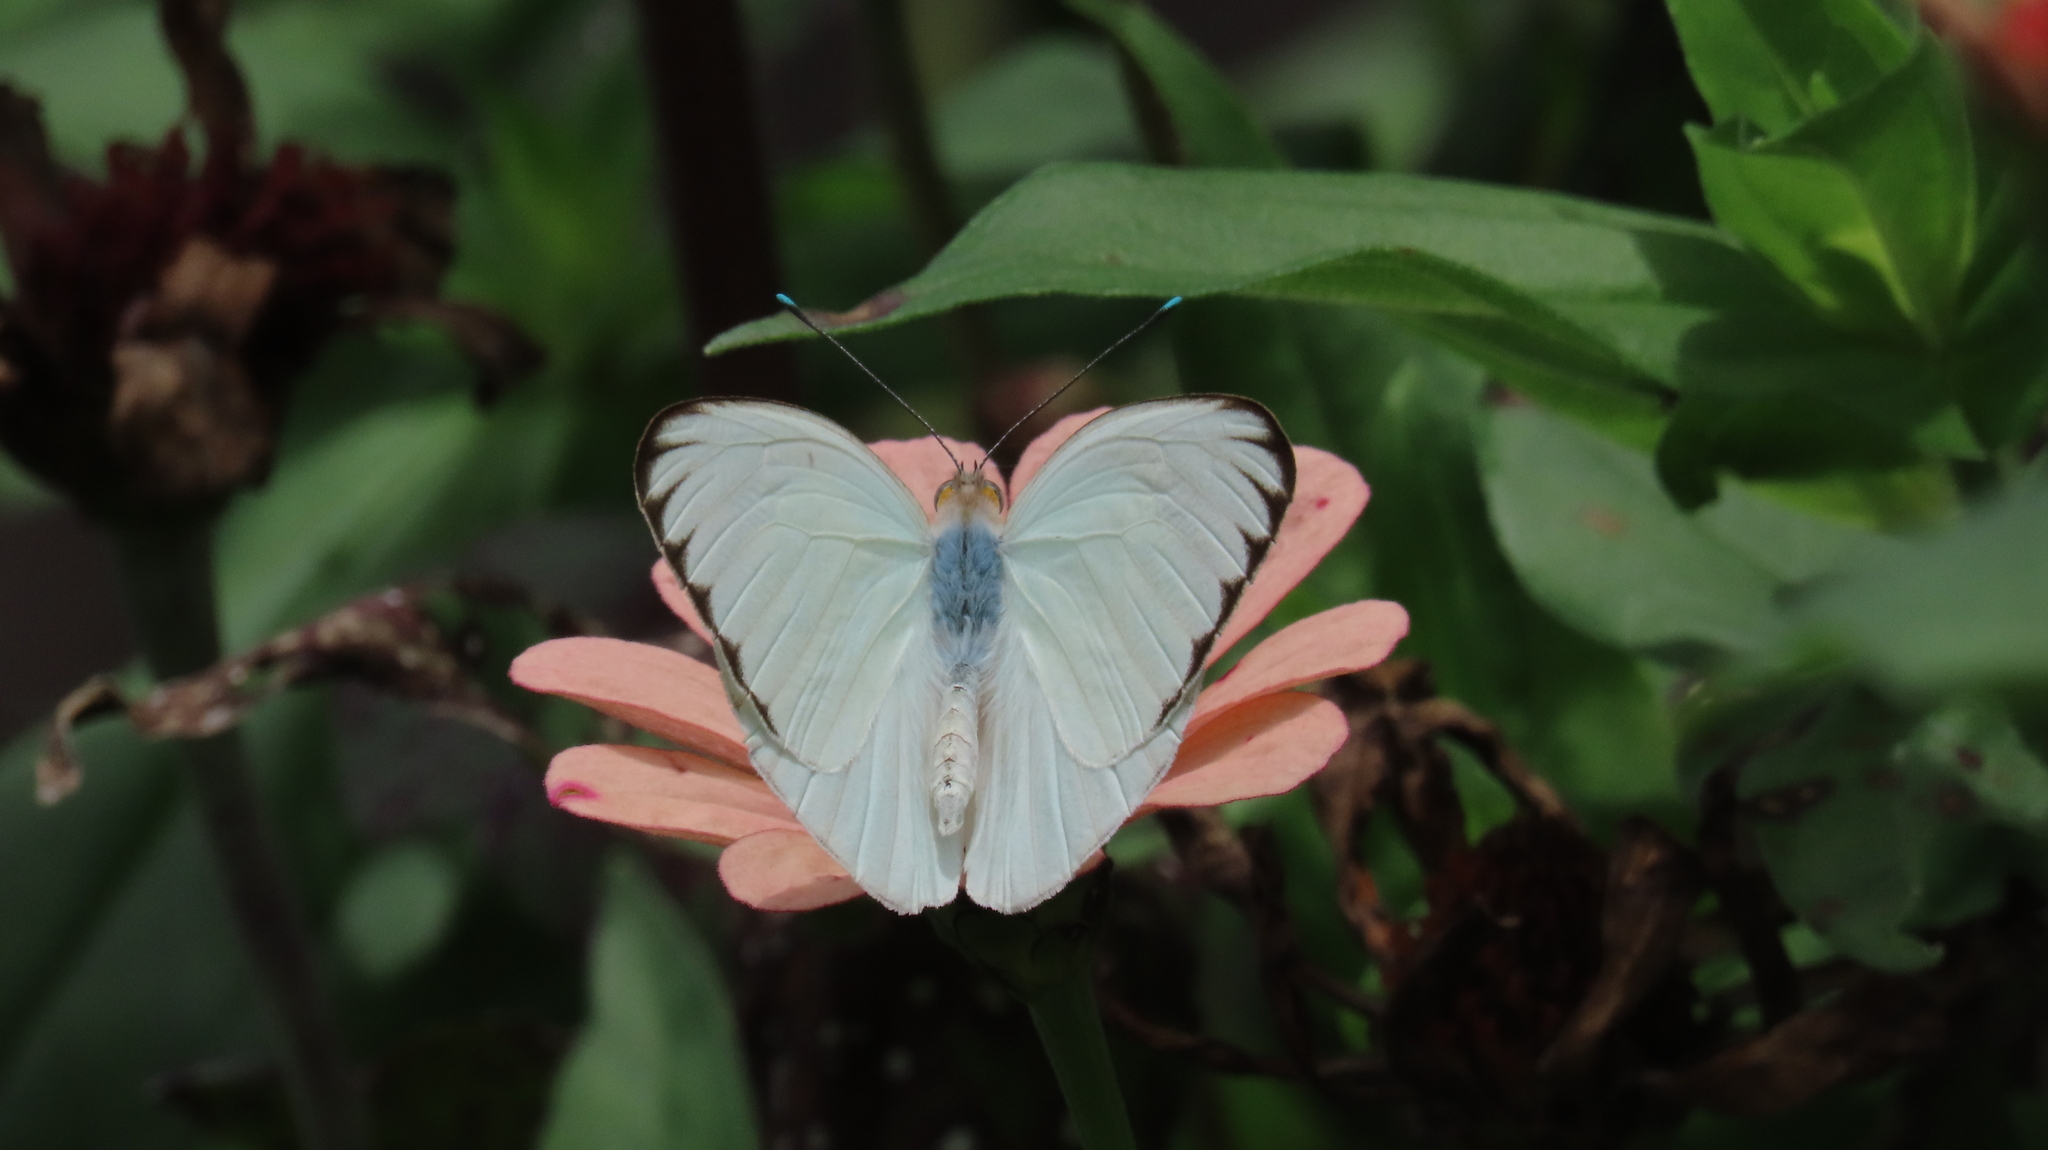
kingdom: Animalia
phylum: Arthropoda
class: Insecta
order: Lepidoptera
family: Pieridae
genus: Ganyra
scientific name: Ganyra josephina
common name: Giant white
